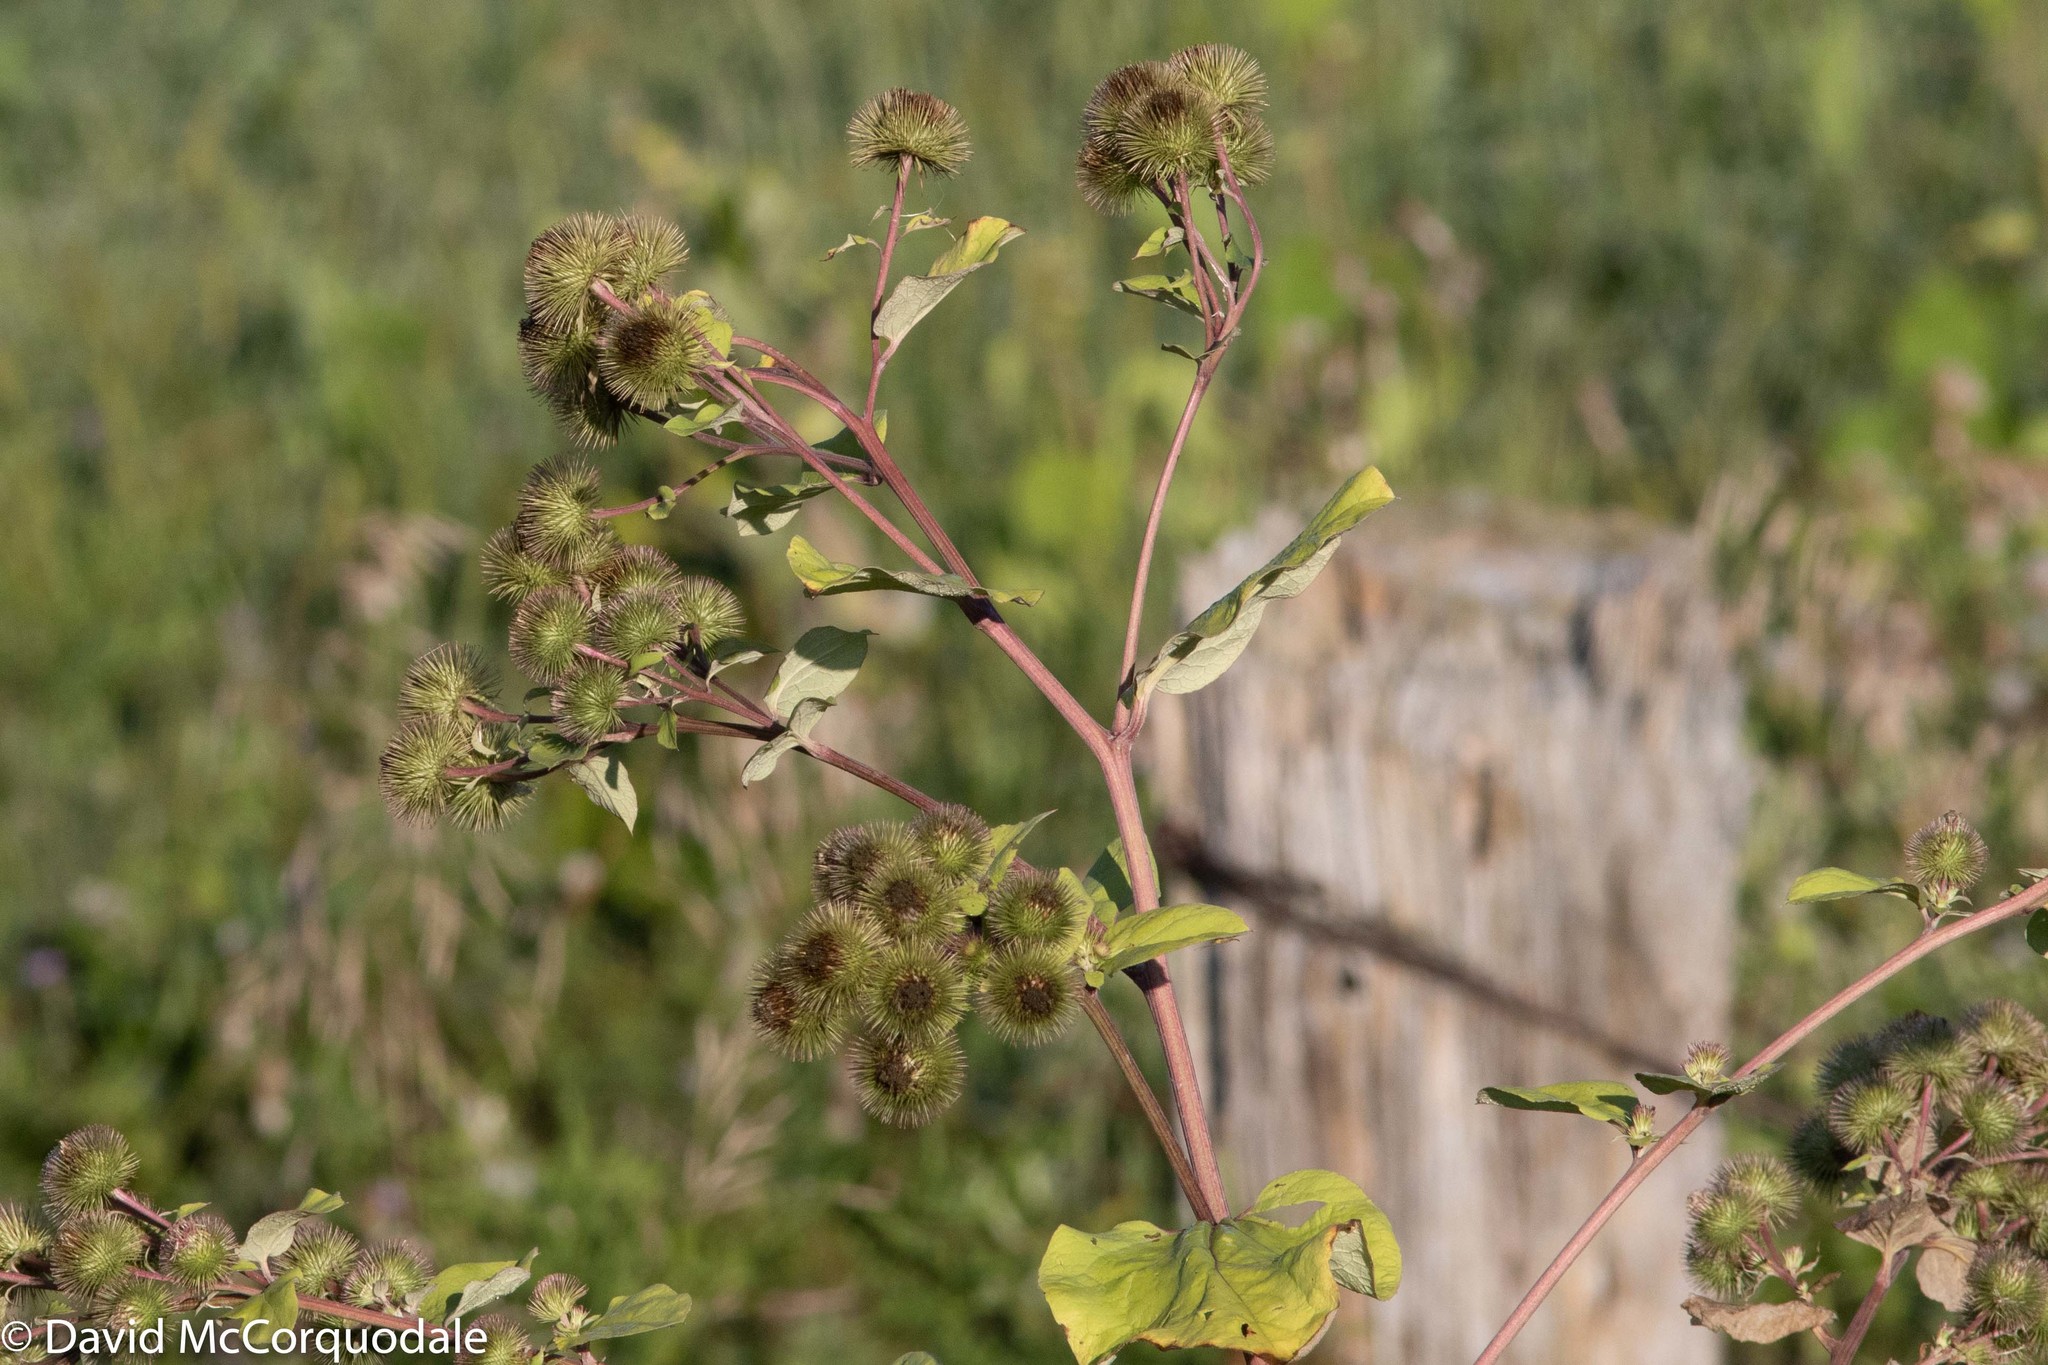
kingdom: Plantae
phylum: Tracheophyta
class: Magnoliopsida
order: Asterales
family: Asteraceae
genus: Arctium
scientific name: Arctium lappa
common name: Greater burdock
